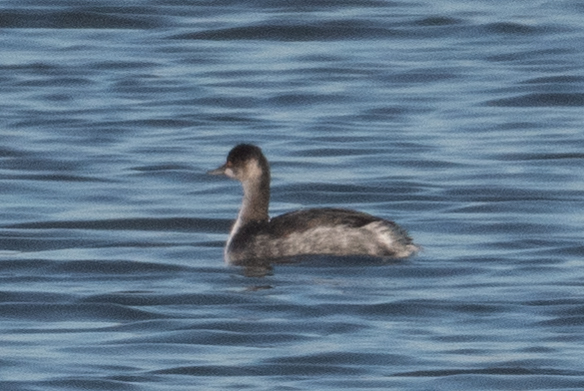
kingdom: Animalia
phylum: Chordata
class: Aves
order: Podicipediformes
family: Podicipedidae
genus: Podiceps
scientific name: Podiceps nigricollis
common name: Black-necked grebe
